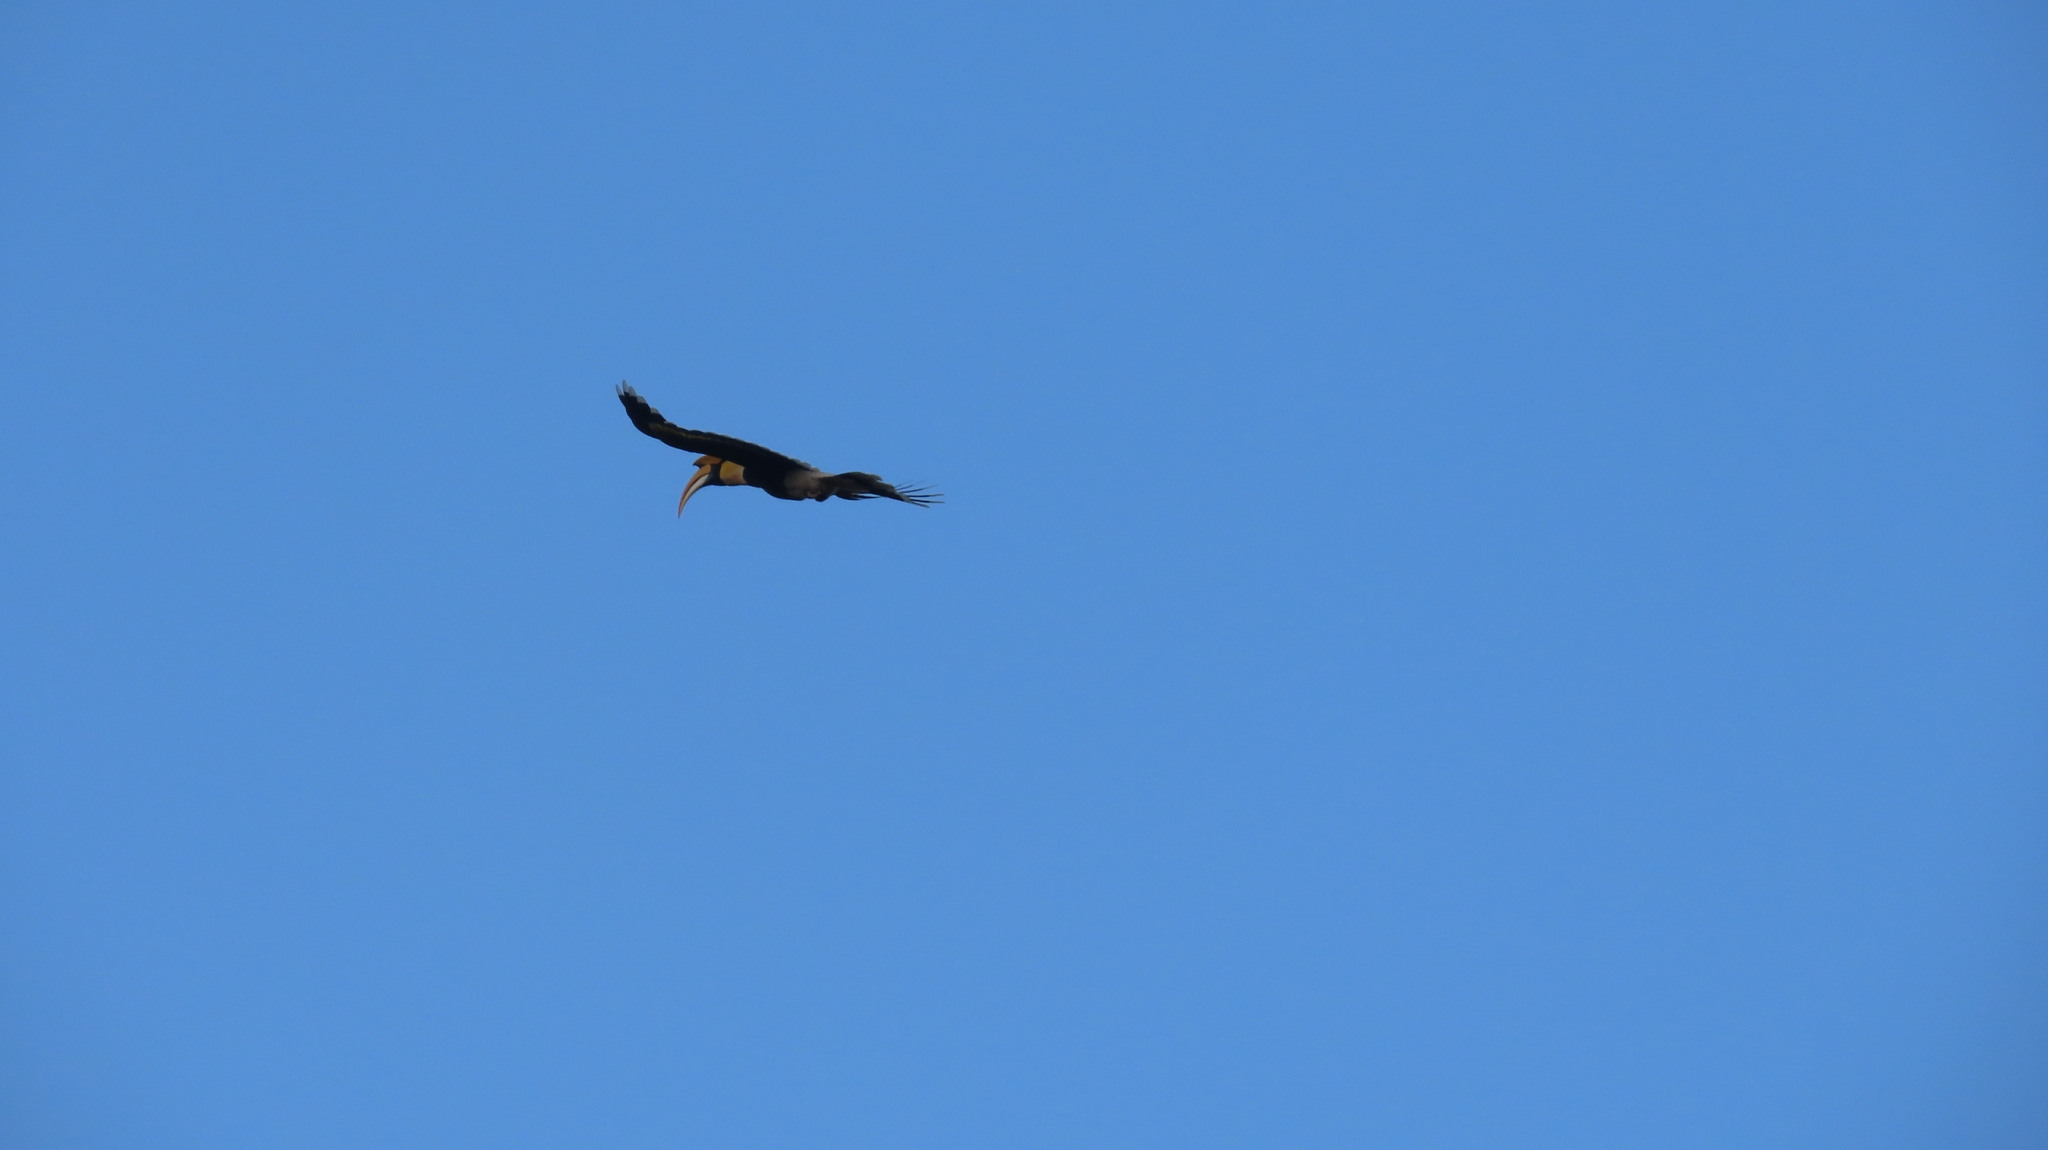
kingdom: Animalia
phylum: Chordata
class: Aves
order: Bucerotiformes
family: Bucerotidae
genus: Buceros
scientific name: Buceros bicornis
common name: Great hornbill
